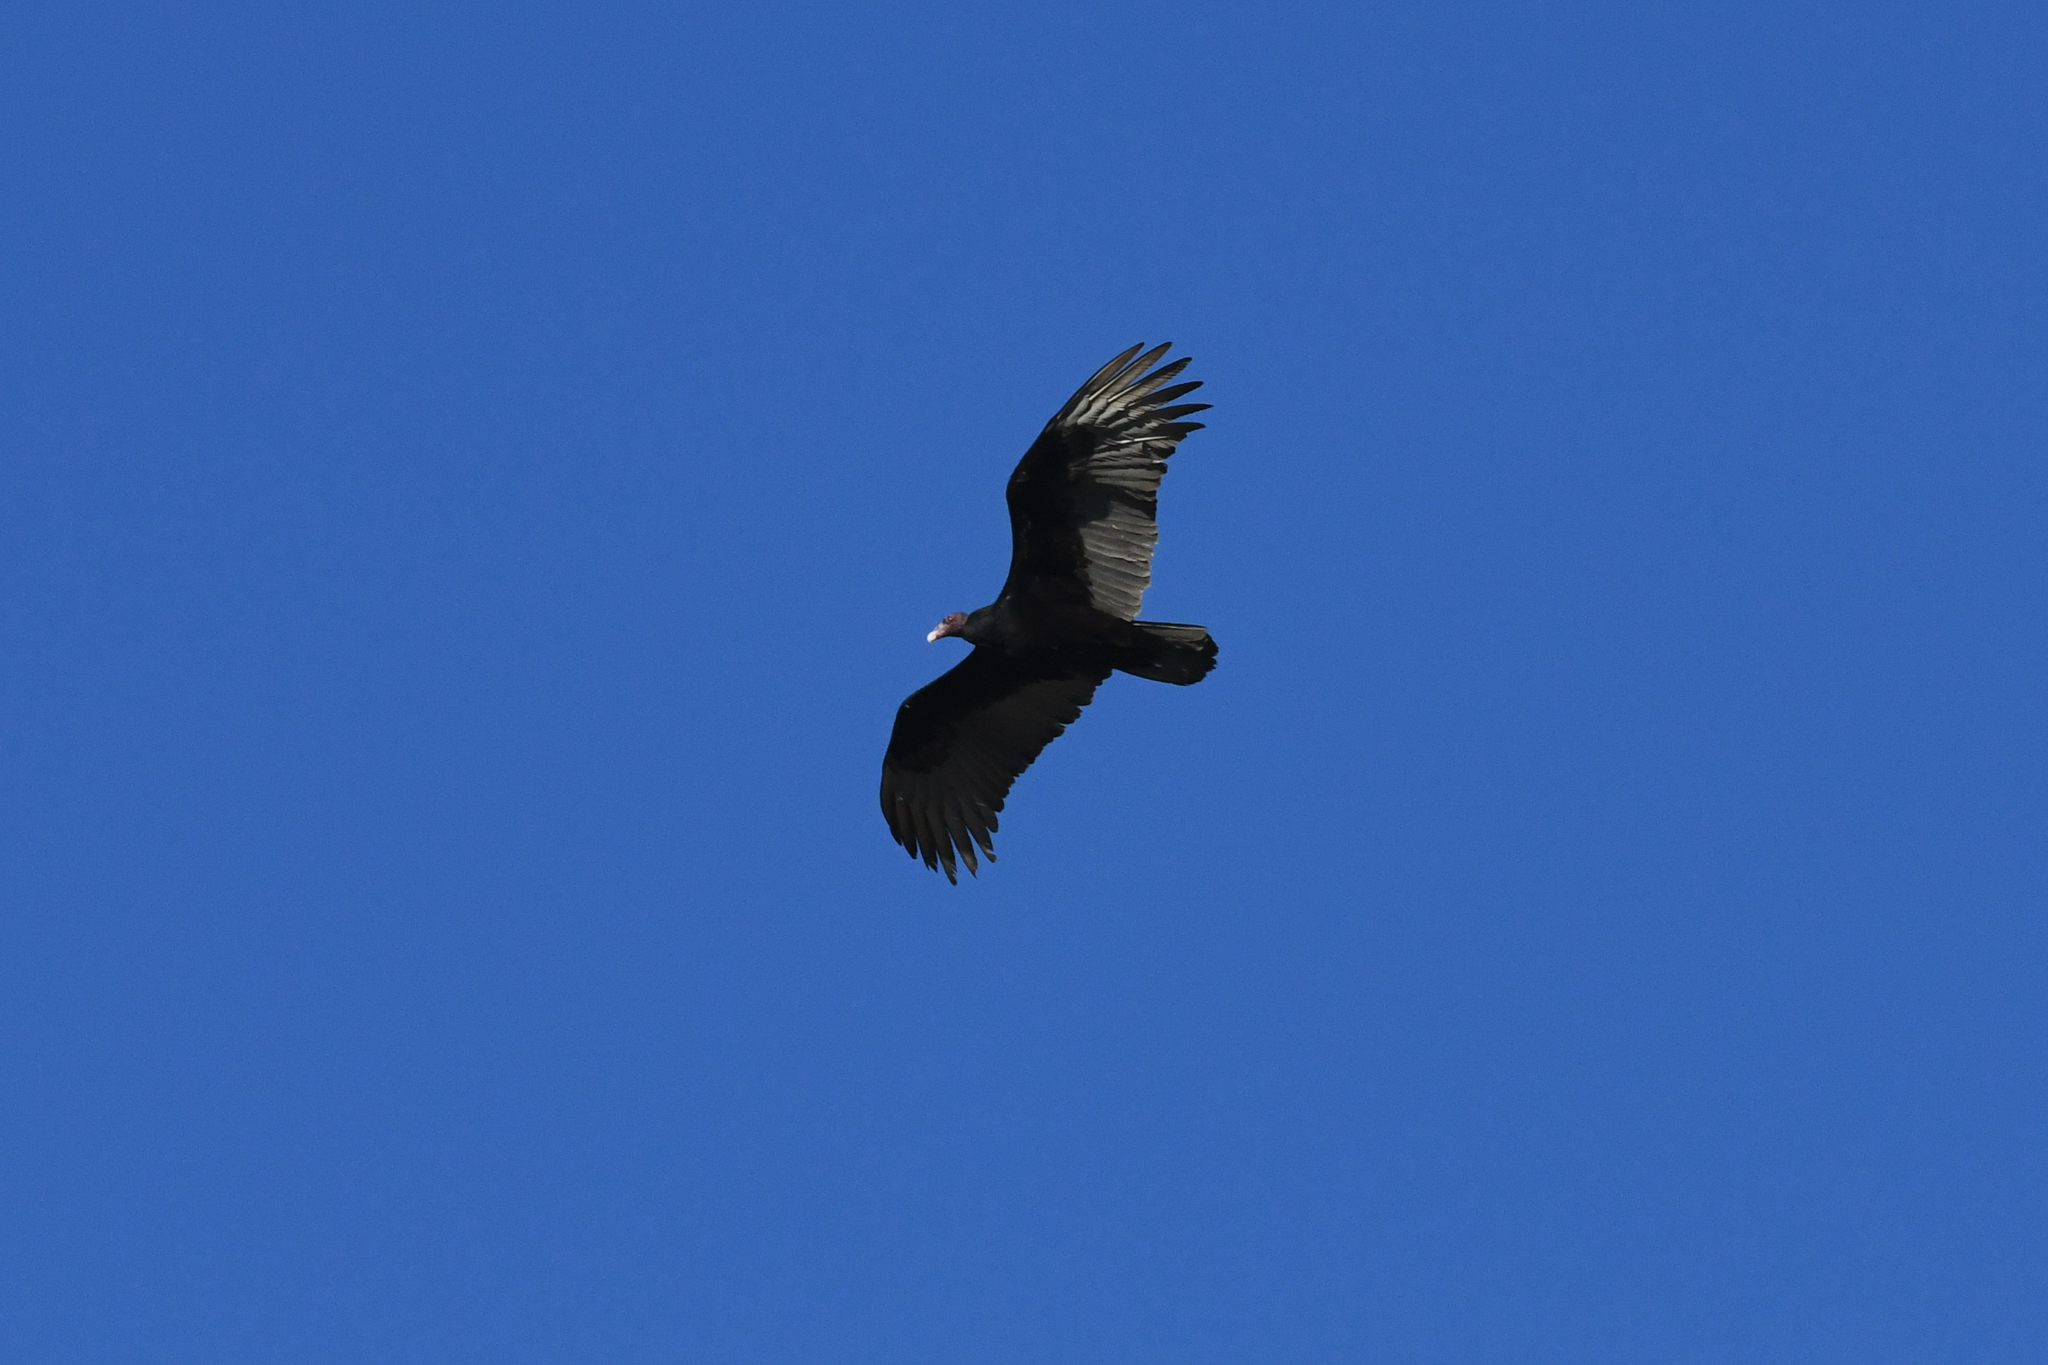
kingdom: Animalia
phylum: Chordata
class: Aves
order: Accipitriformes
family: Cathartidae
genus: Cathartes
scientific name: Cathartes aura
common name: Turkey vulture
